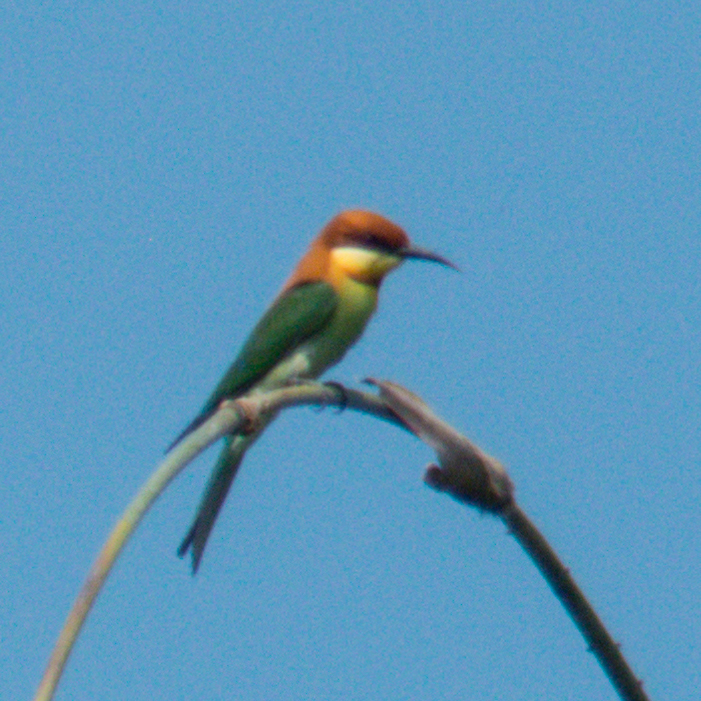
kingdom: Animalia
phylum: Chordata
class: Aves
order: Coraciiformes
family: Meropidae
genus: Merops
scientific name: Merops leschenaulti
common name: Chestnut-headed bee-eater
